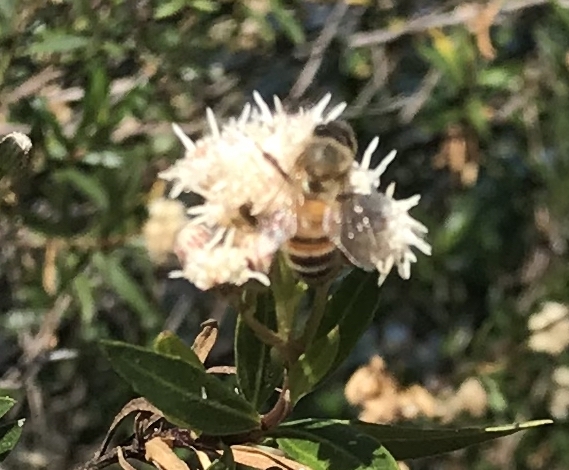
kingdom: Animalia
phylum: Arthropoda
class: Insecta
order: Hymenoptera
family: Apidae
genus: Apis
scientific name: Apis mellifera
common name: Honey bee
